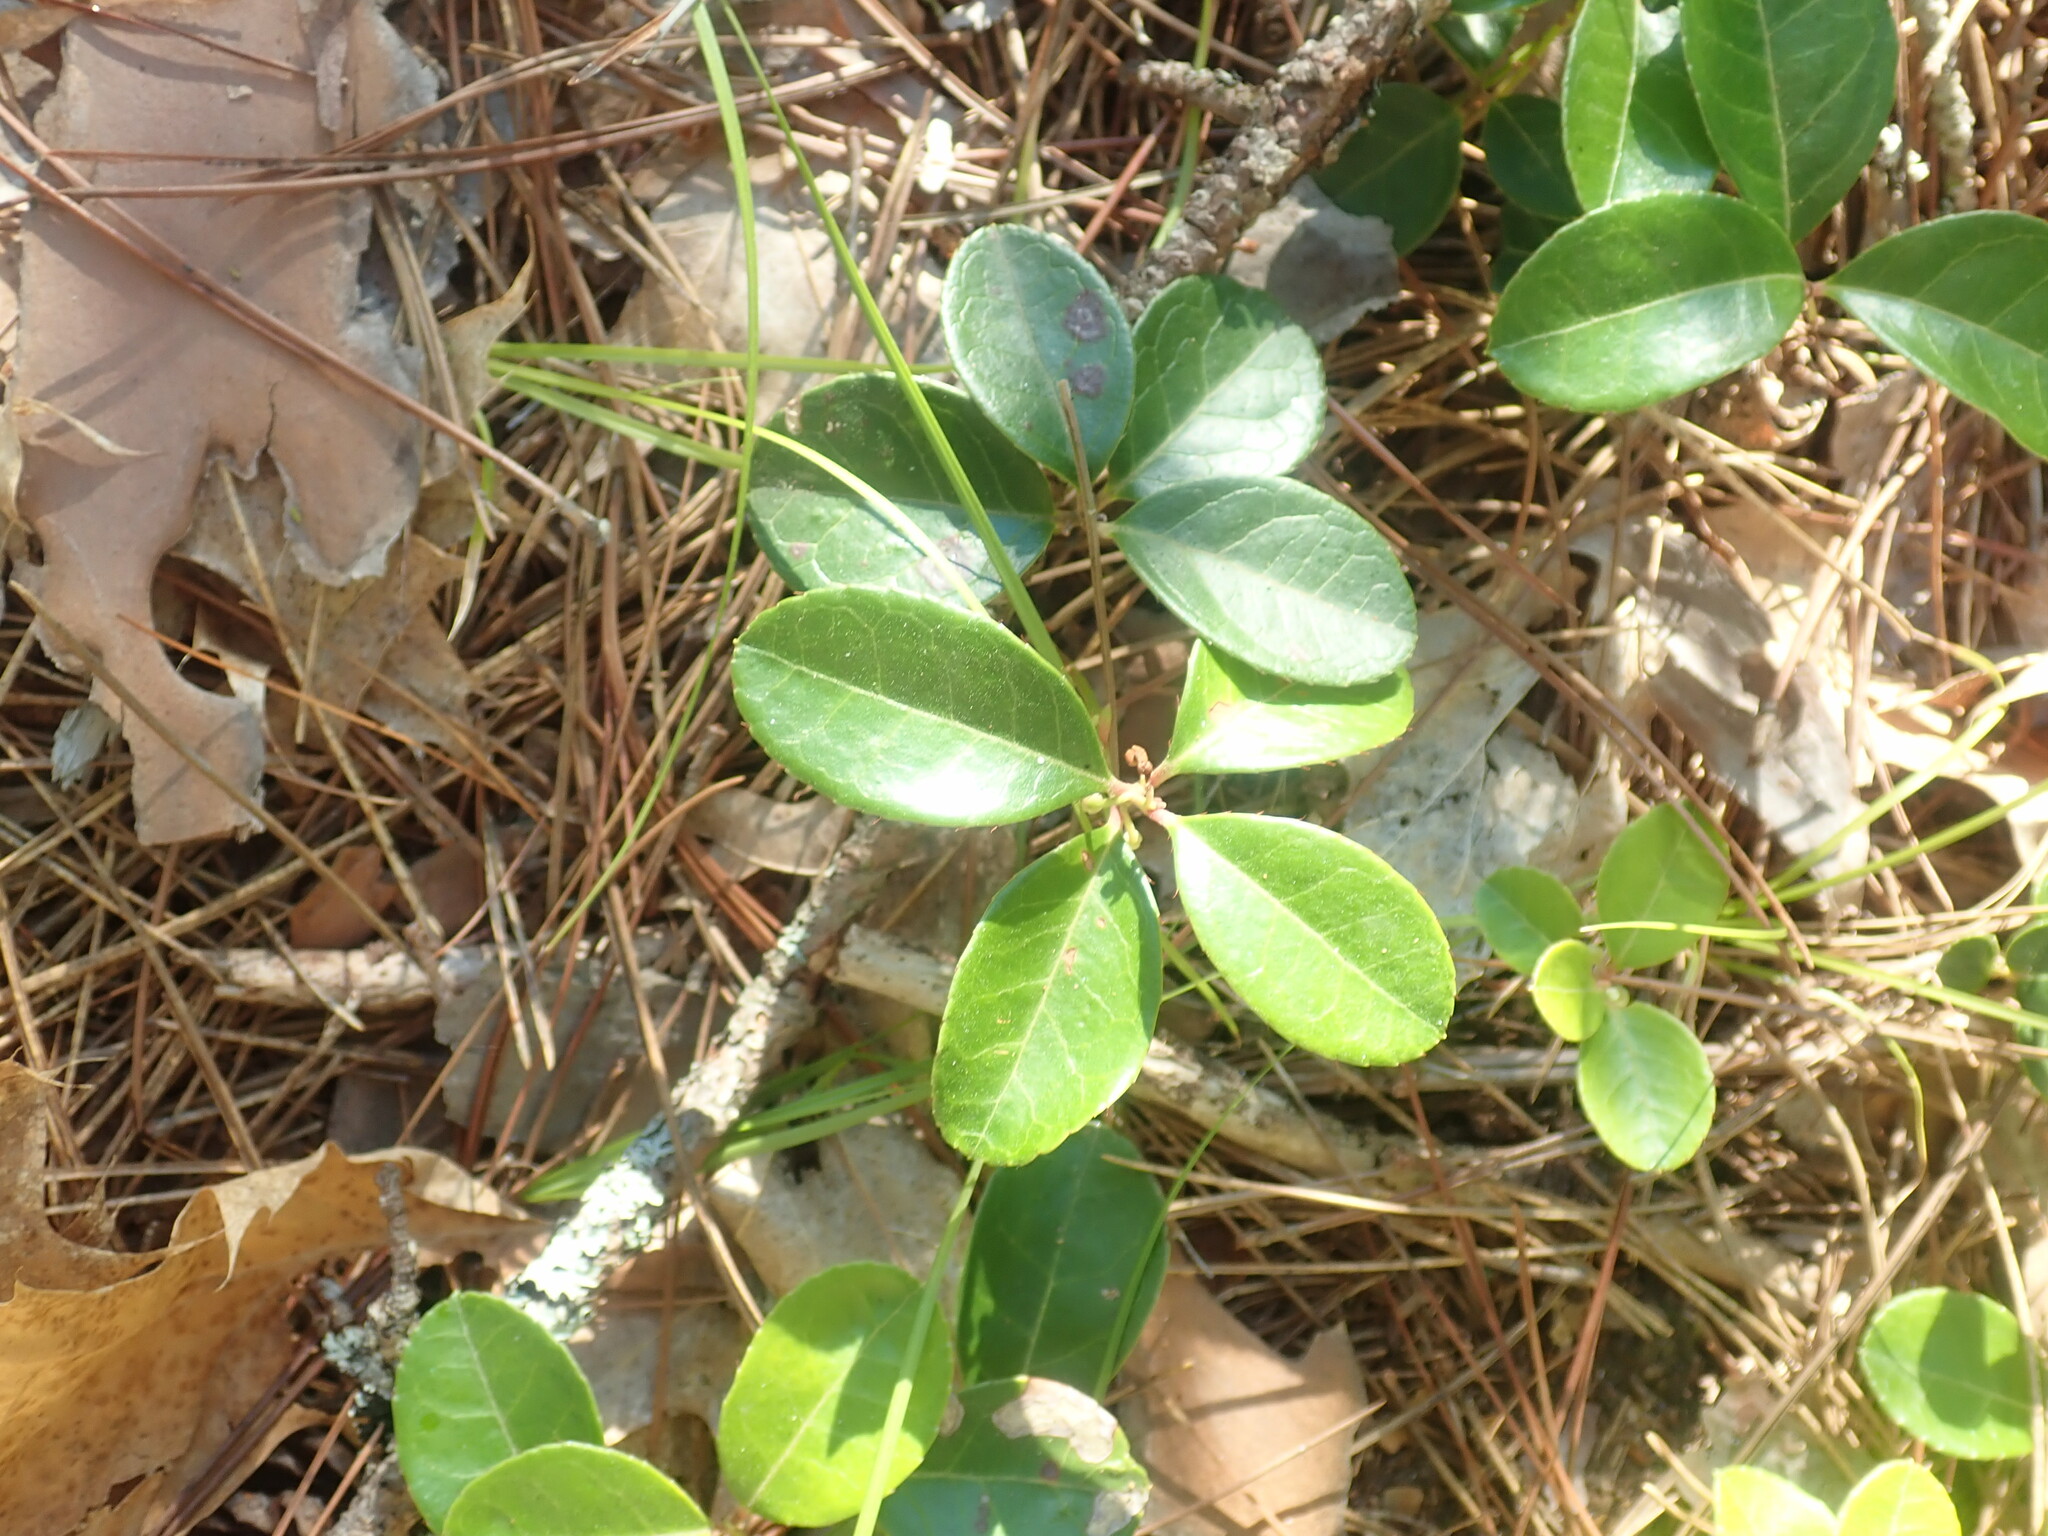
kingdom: Plantae
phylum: Tracheophyta
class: Magnoliopsida
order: Ericales
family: Ericaceae
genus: Gaultheria
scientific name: Gaultheria procumbens
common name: Checkerberry
